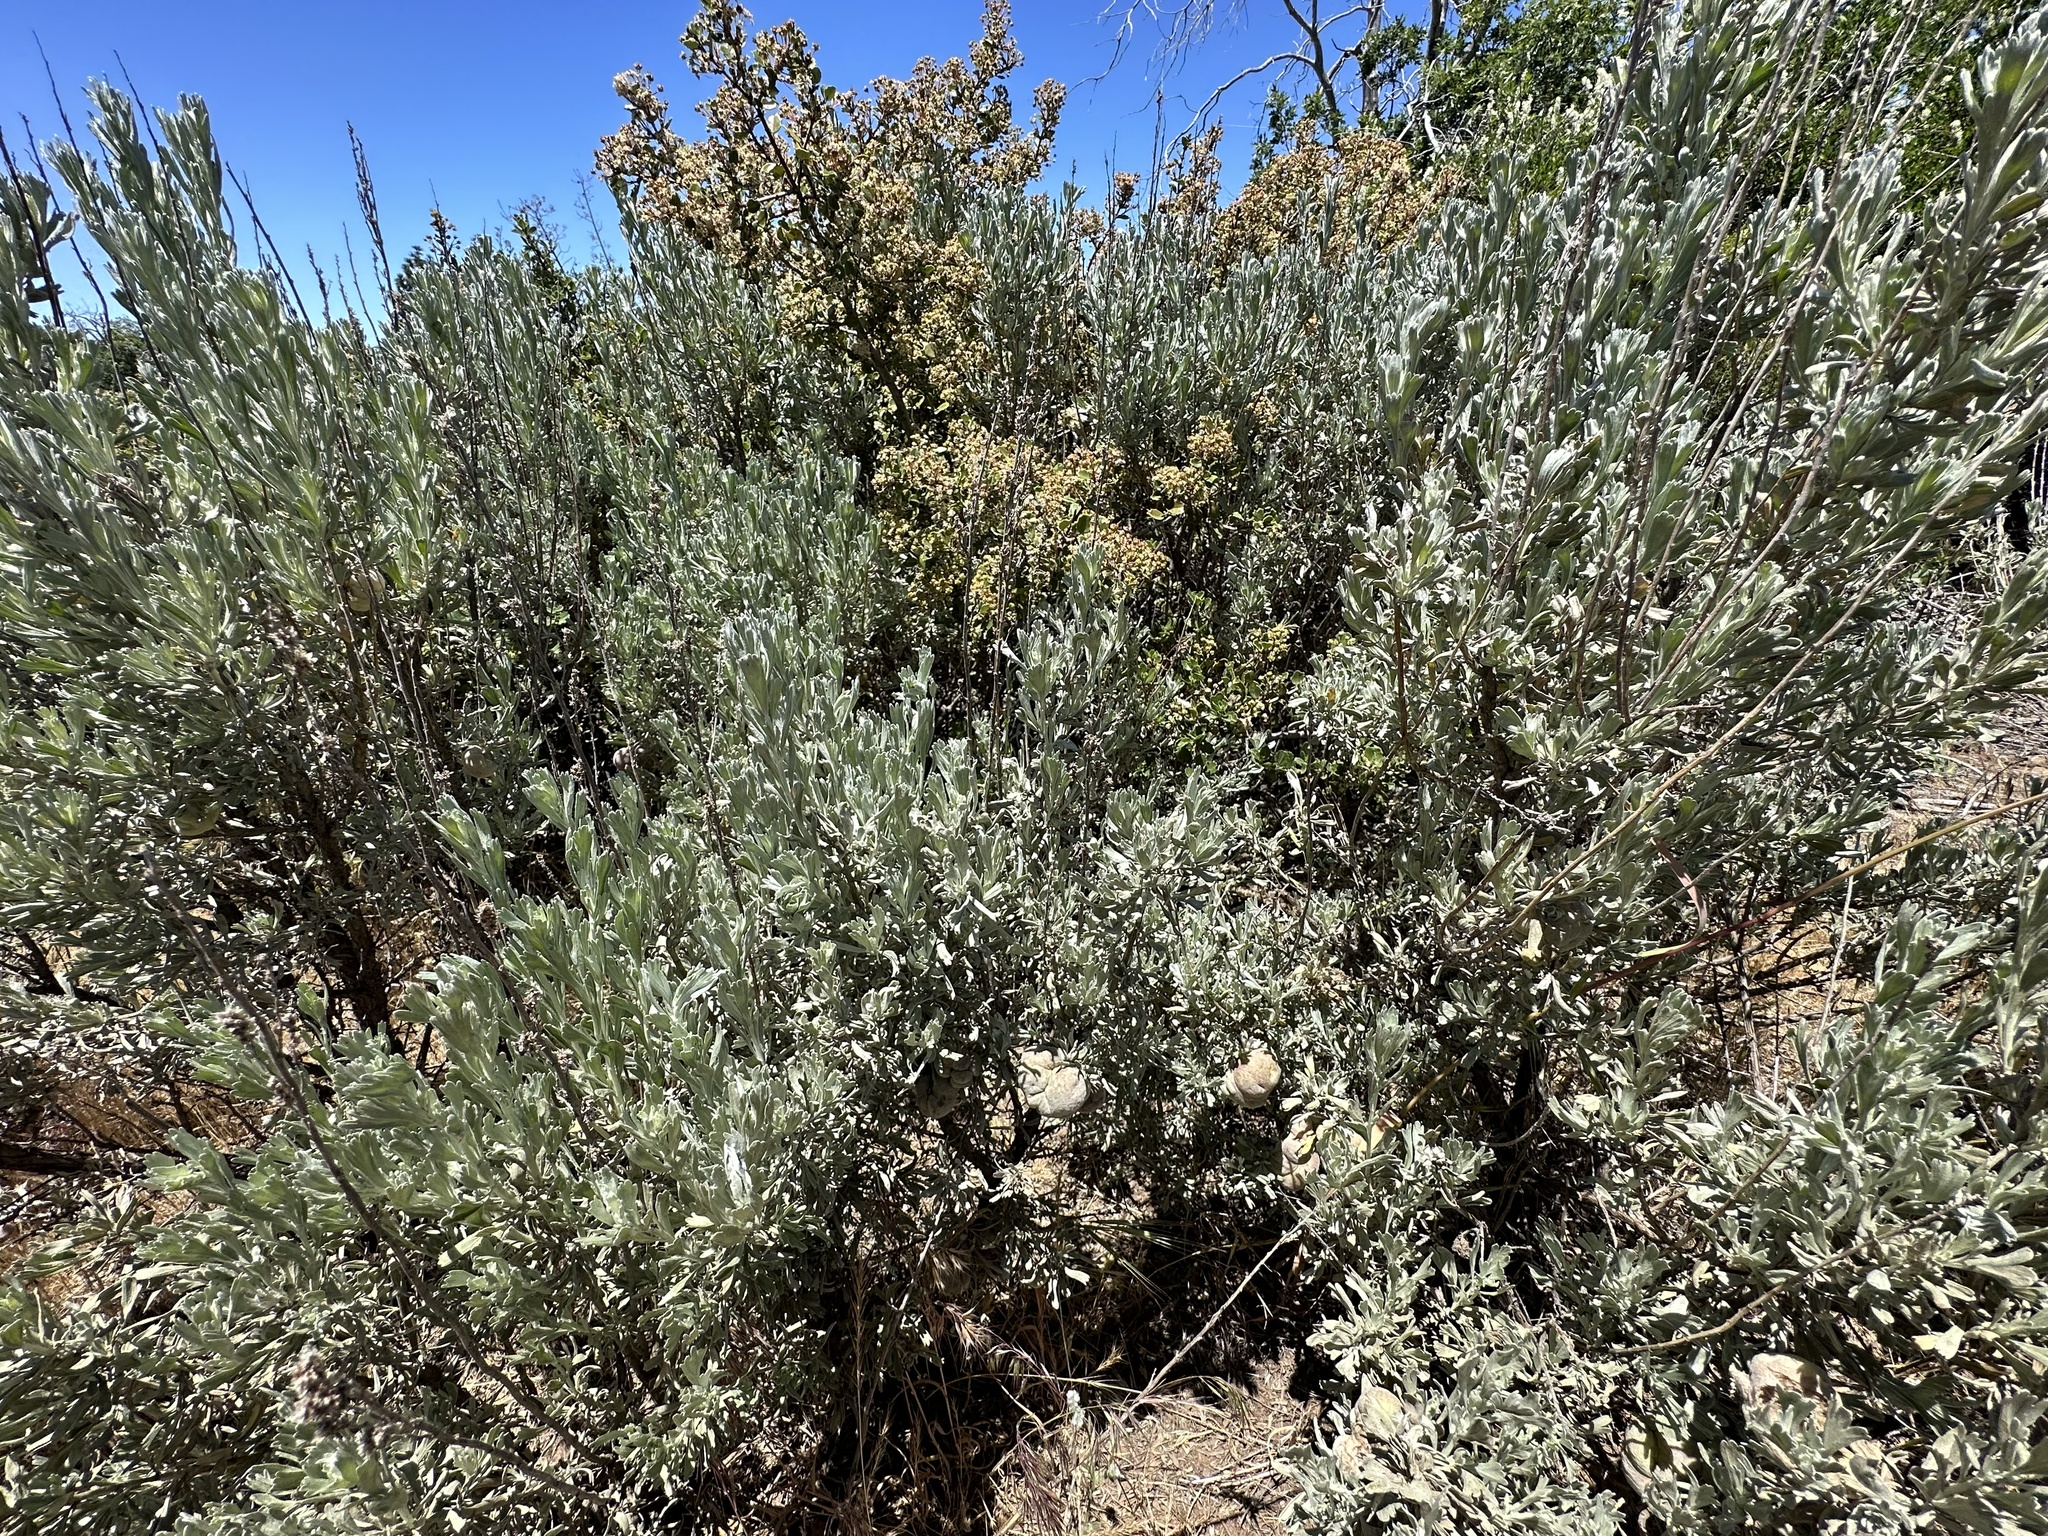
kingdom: Animalia
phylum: Arthropoda
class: Insecta
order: Diptera
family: Cecidomyiidae
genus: Rhopalomyia
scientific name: Rhopalomyia pomum
